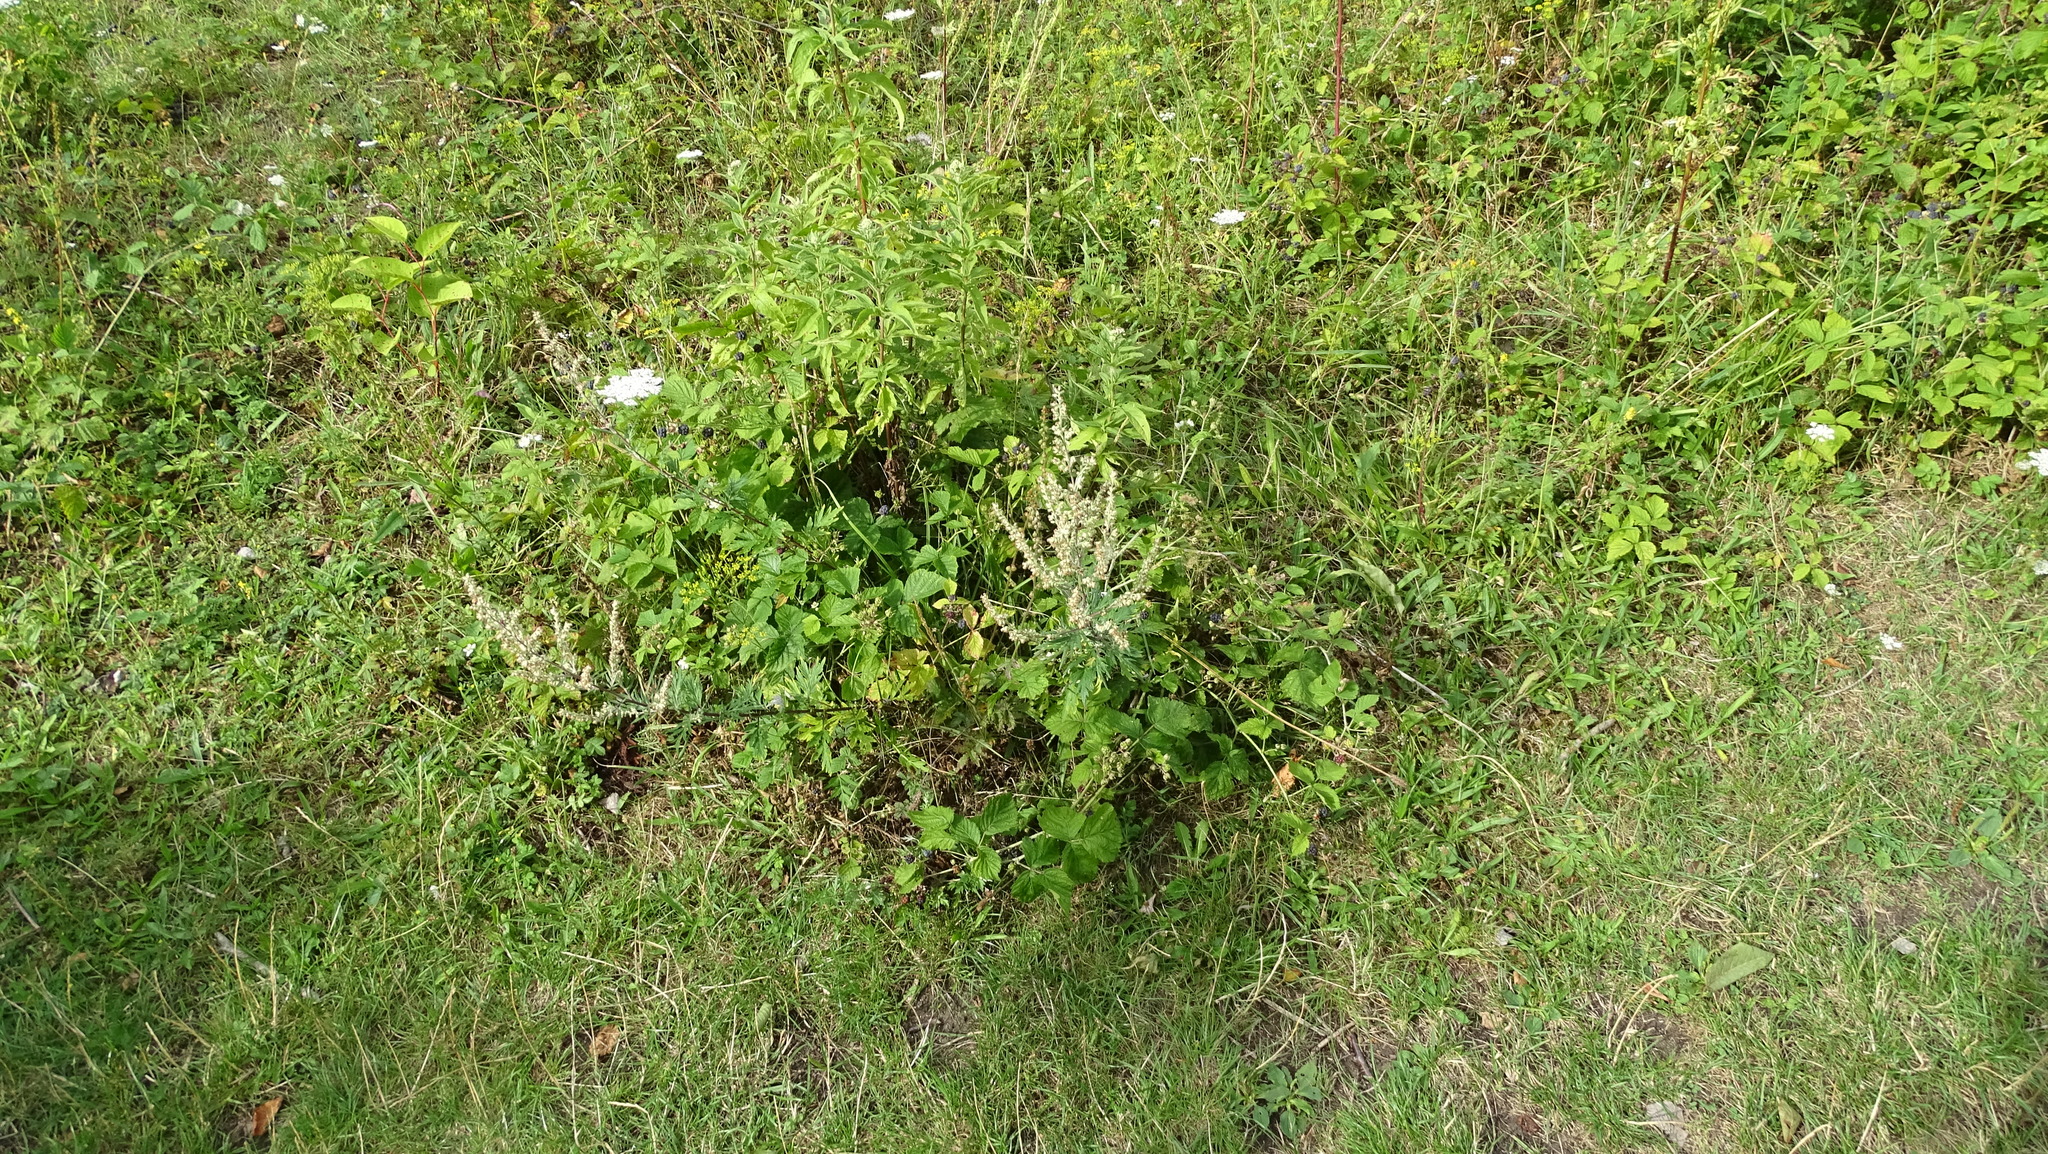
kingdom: Plantae
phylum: Tracheophyta
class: Magnoliopsida
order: Asterales
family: Asteraceae
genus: Artemisia
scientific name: Artemisia vulgaris
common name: Mugwort
